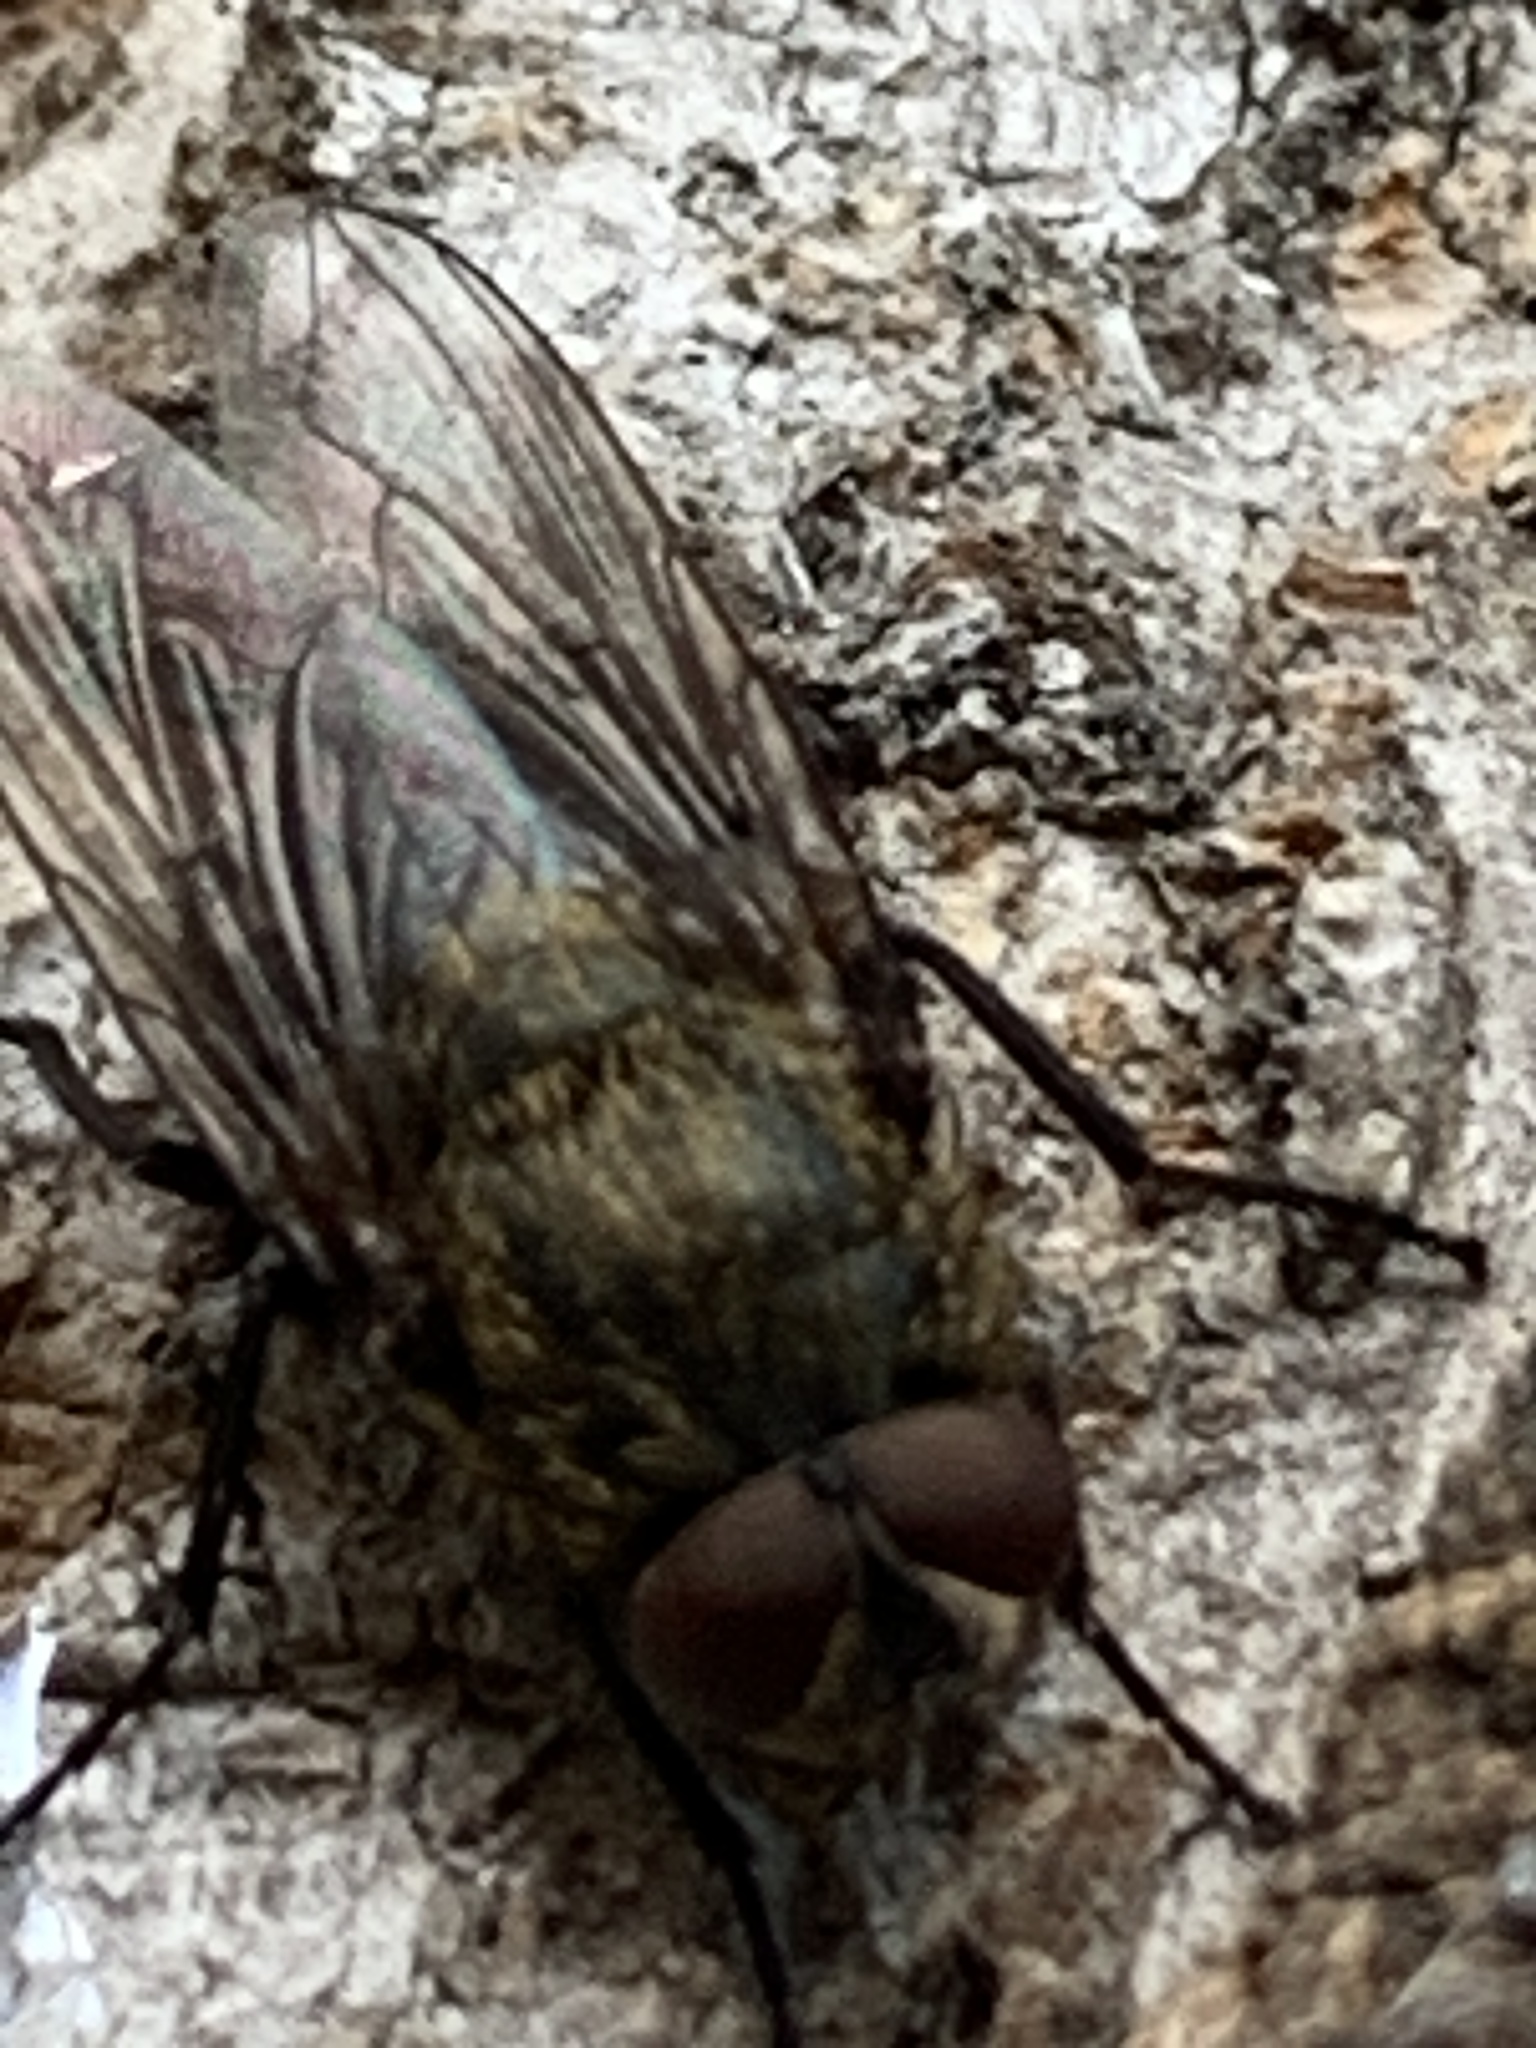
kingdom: Animalia
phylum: Arthropoda
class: Insecta
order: Diptera
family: Polleniidae
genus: Pollenia
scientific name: Pollenia
